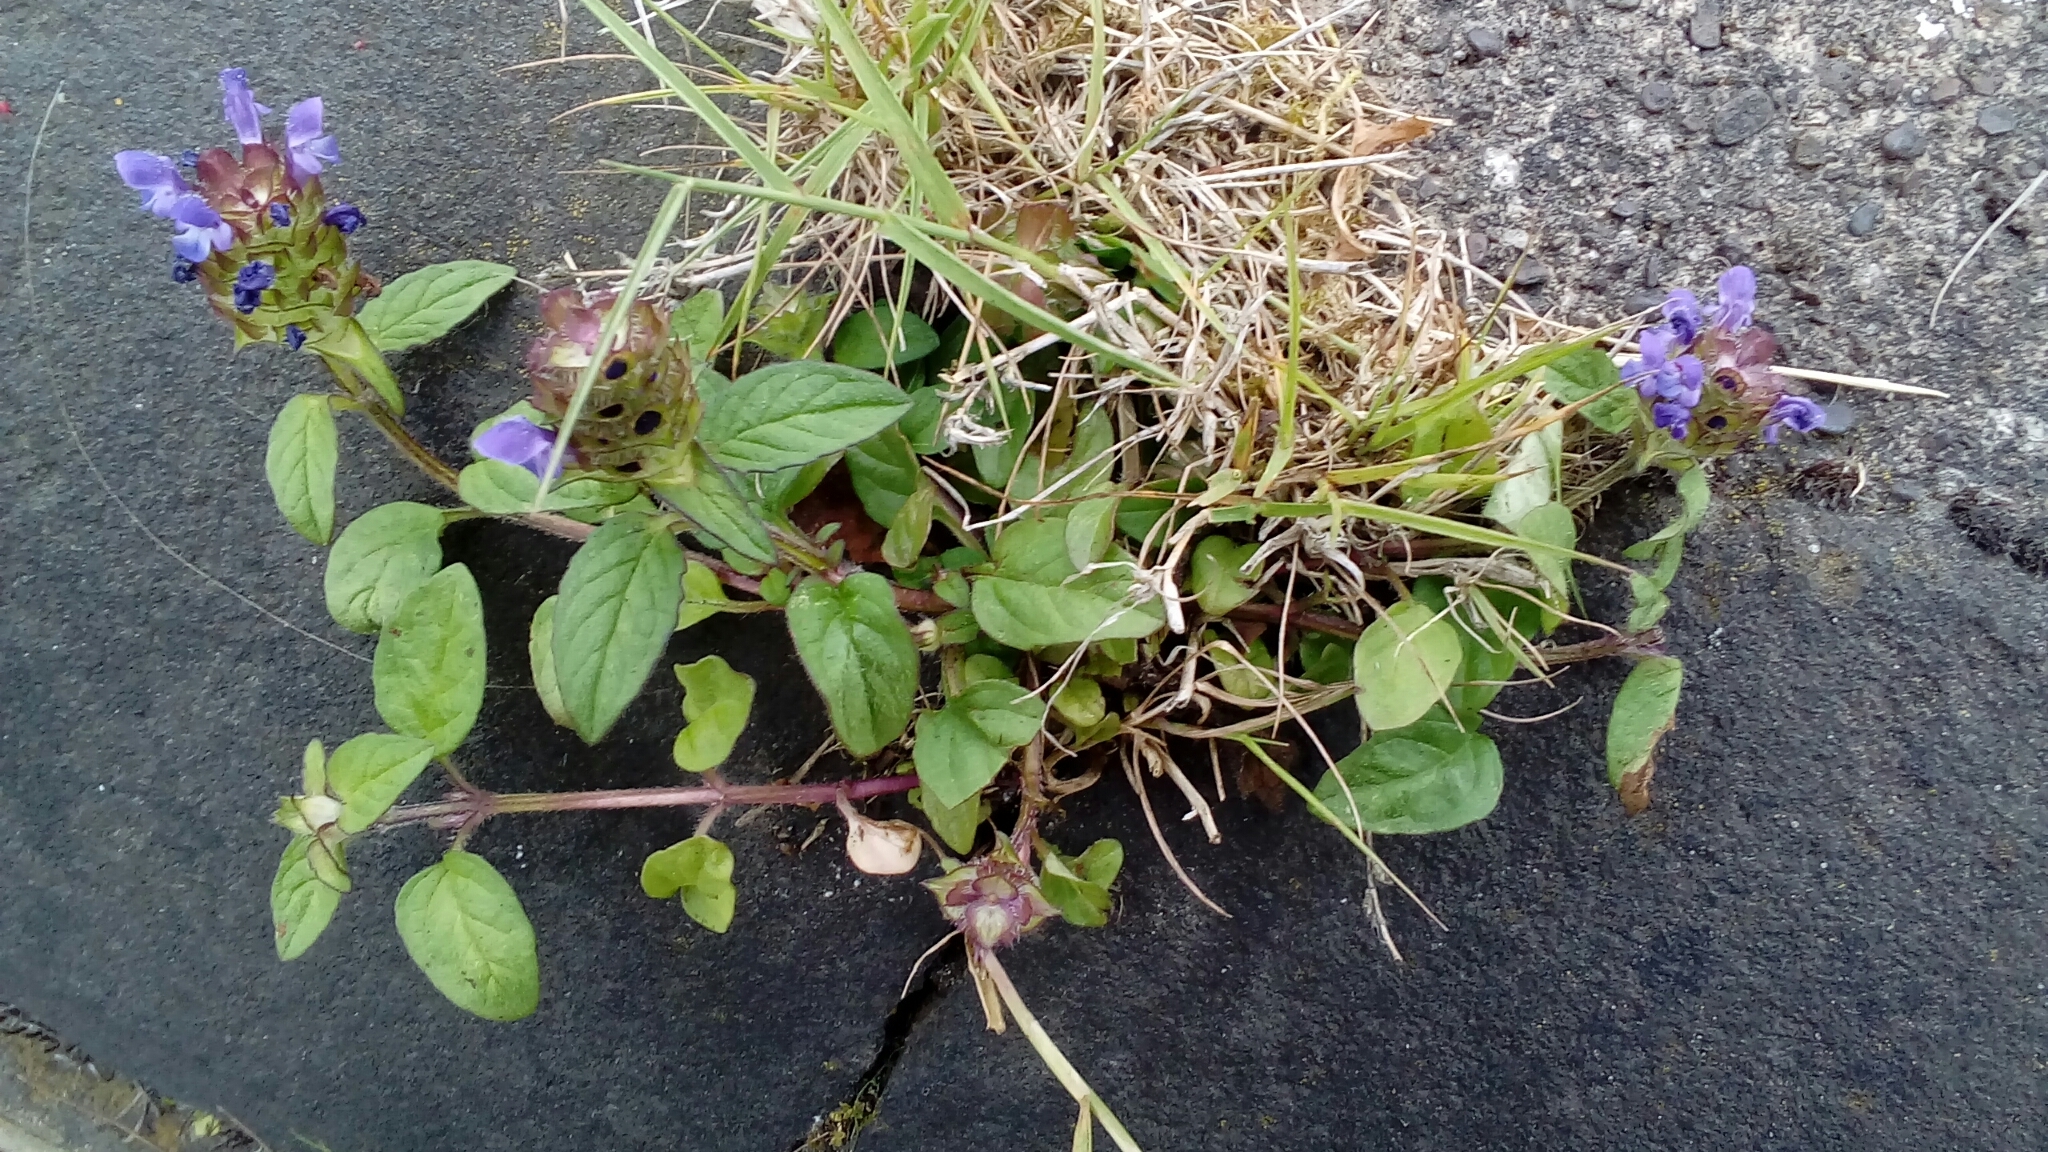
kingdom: Plantae
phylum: Tracheophyta
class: Magnoliopsida
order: Lamiales
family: Lamiaceae
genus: Prunella
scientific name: Prunella vulgaris
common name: Heal-all
